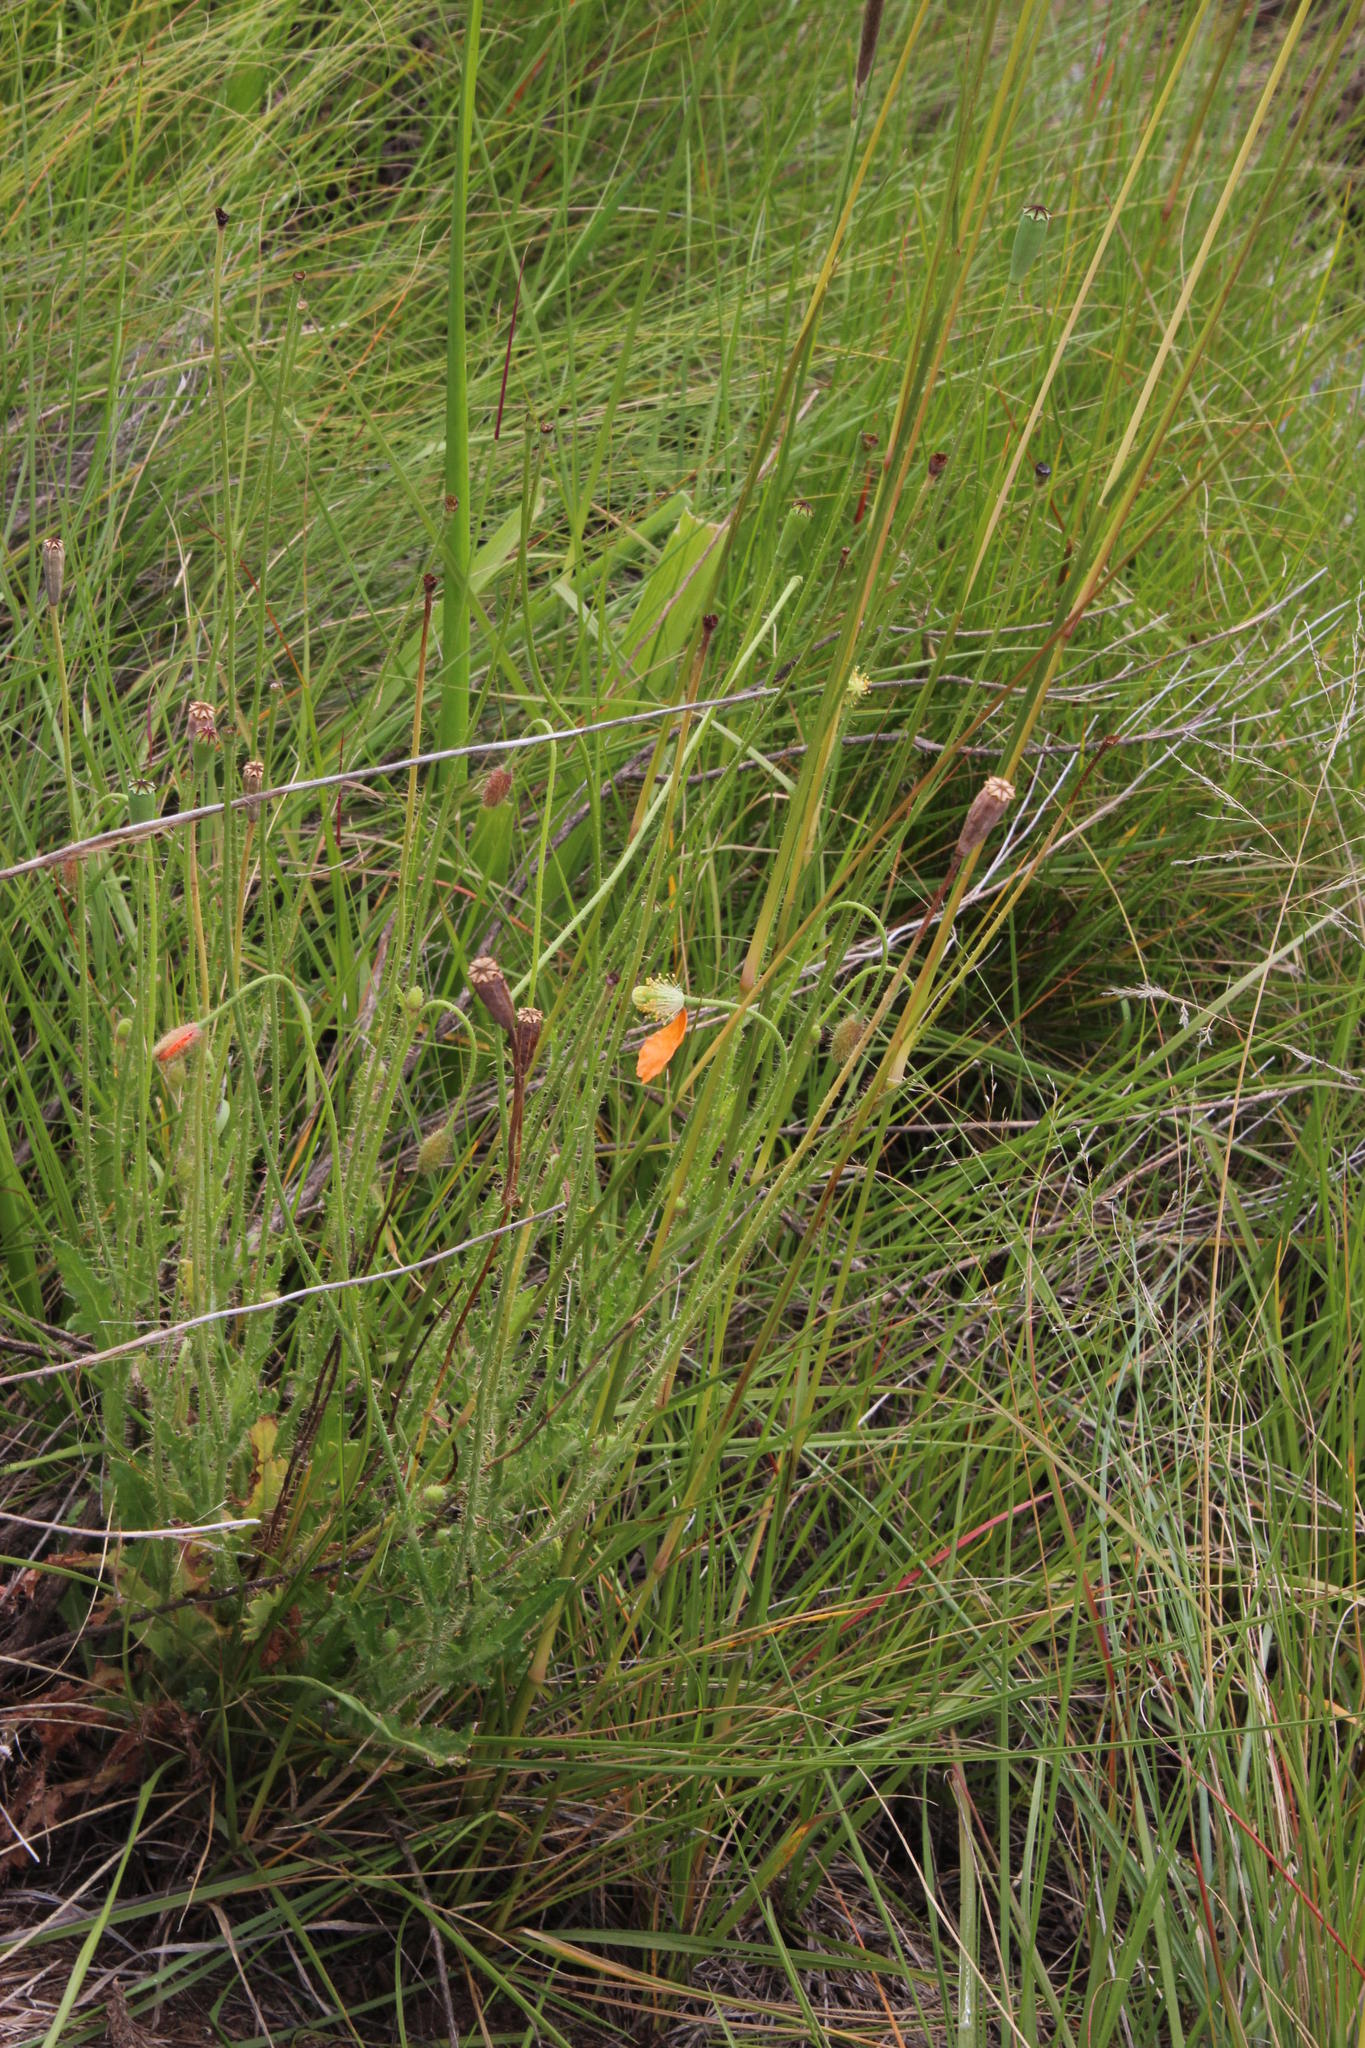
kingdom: Plantae
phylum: Tracheophyta
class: Magnoliopsida
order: Ranunculales
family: Papaveraceae
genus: Papaver
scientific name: Papaver aculeatum
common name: Bristle poppy
